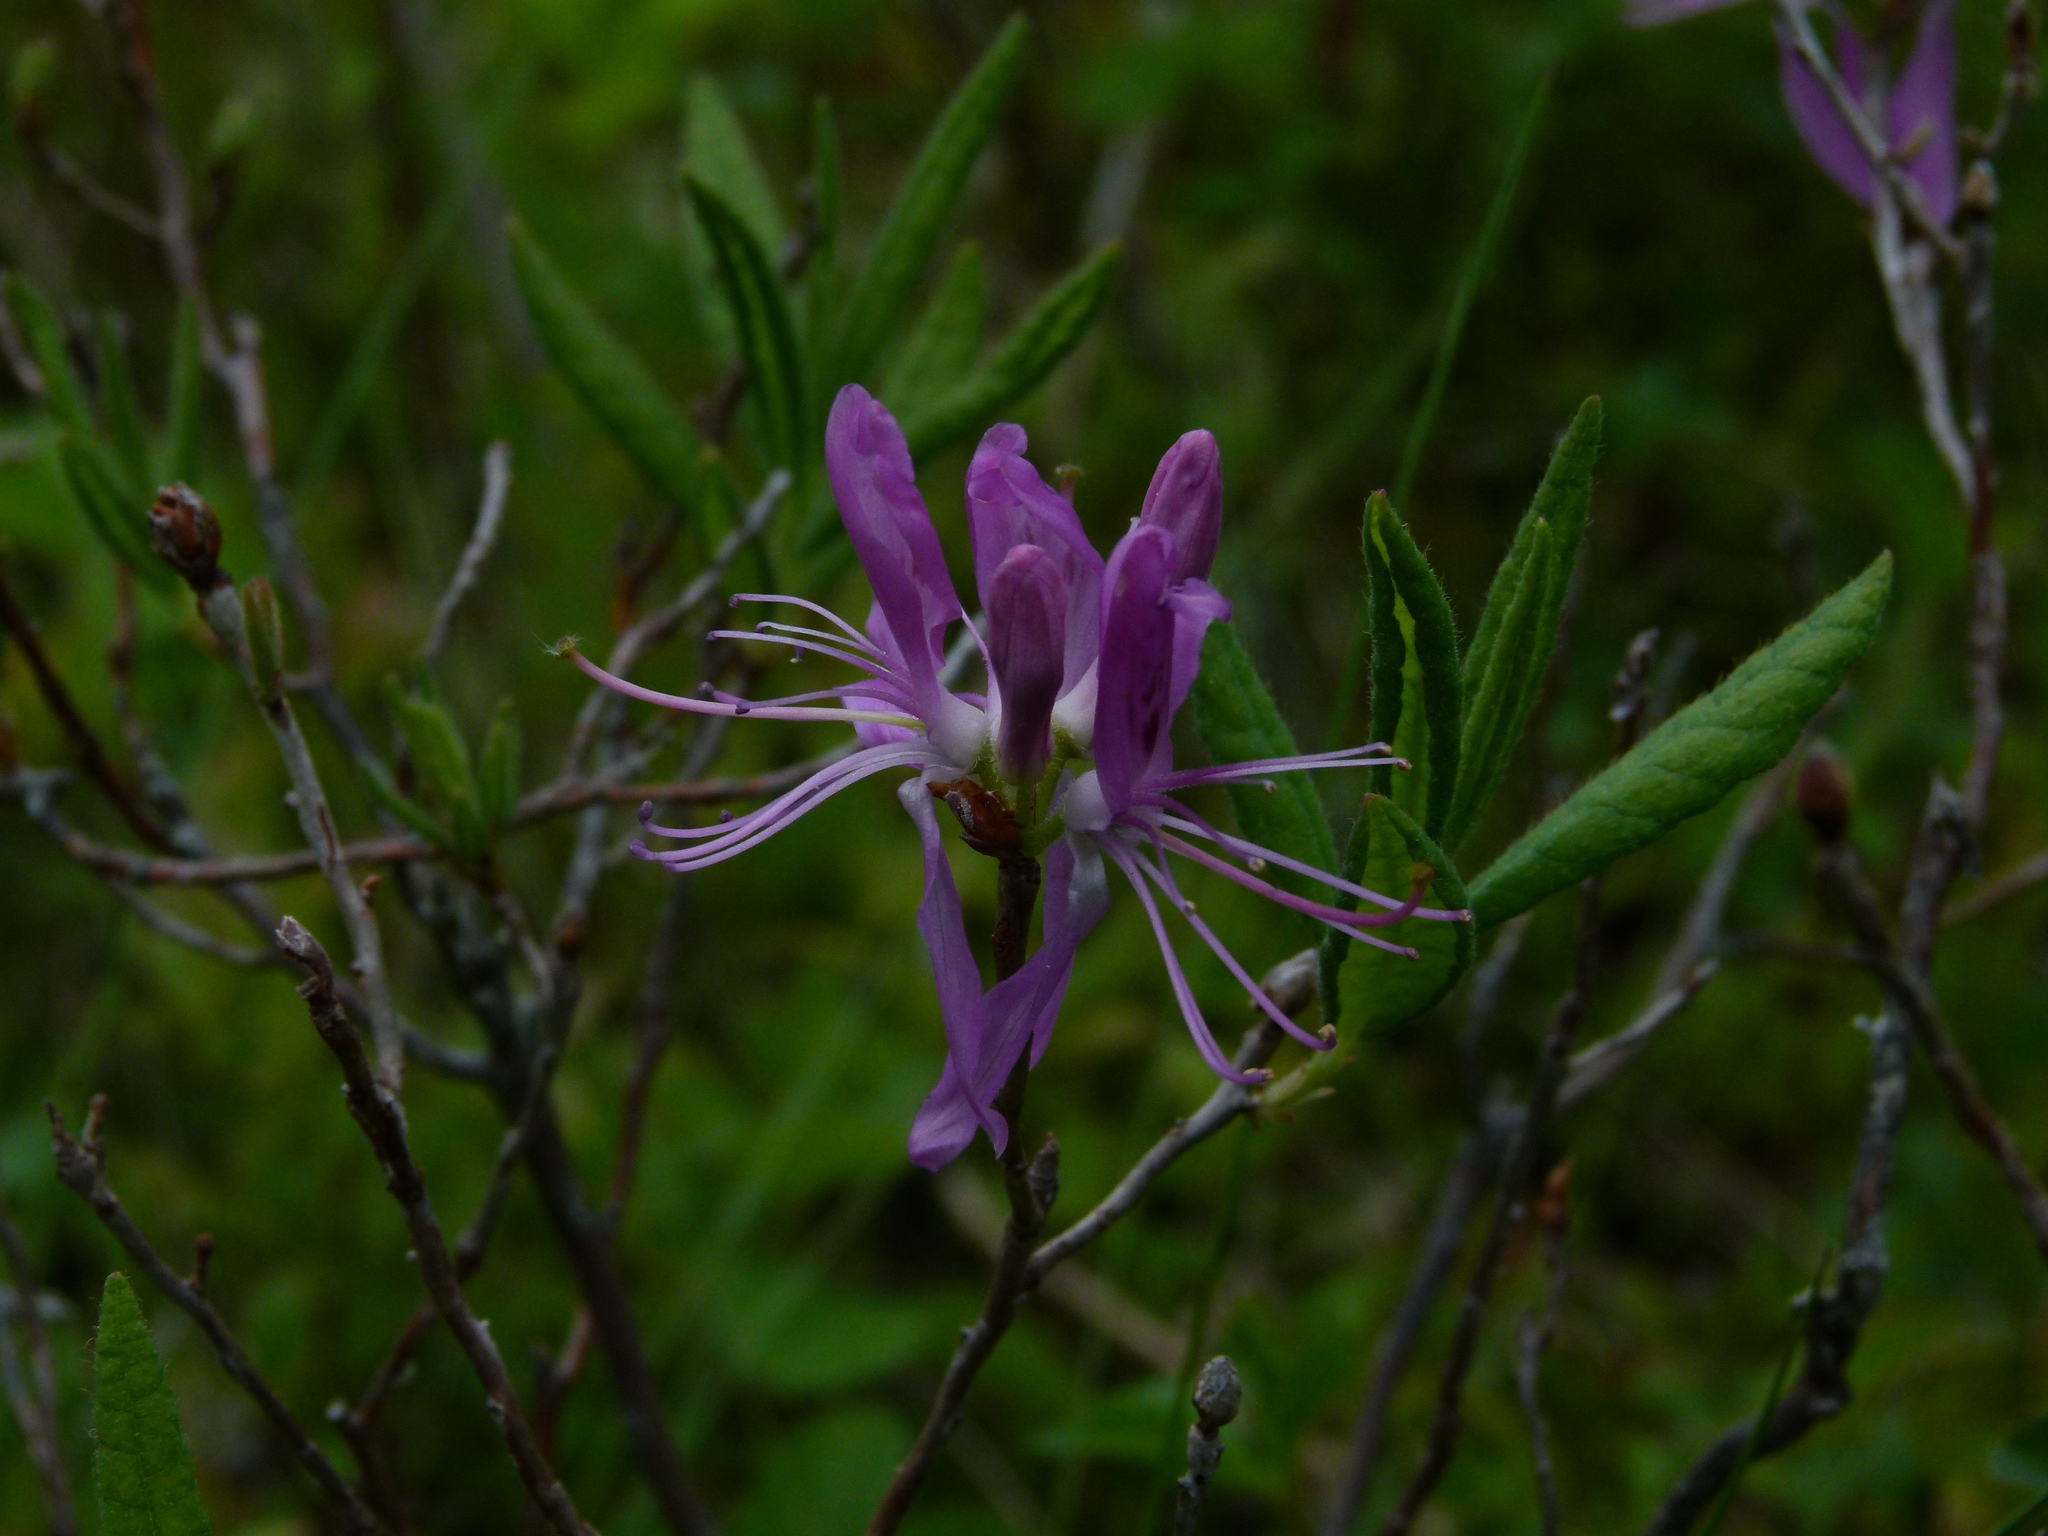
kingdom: Plantae
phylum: Tracheophyta
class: Magnoliopsida
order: Ericales
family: Ericaceae
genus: Rhododendron
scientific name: Rhododendron canadense
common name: Rhodora
